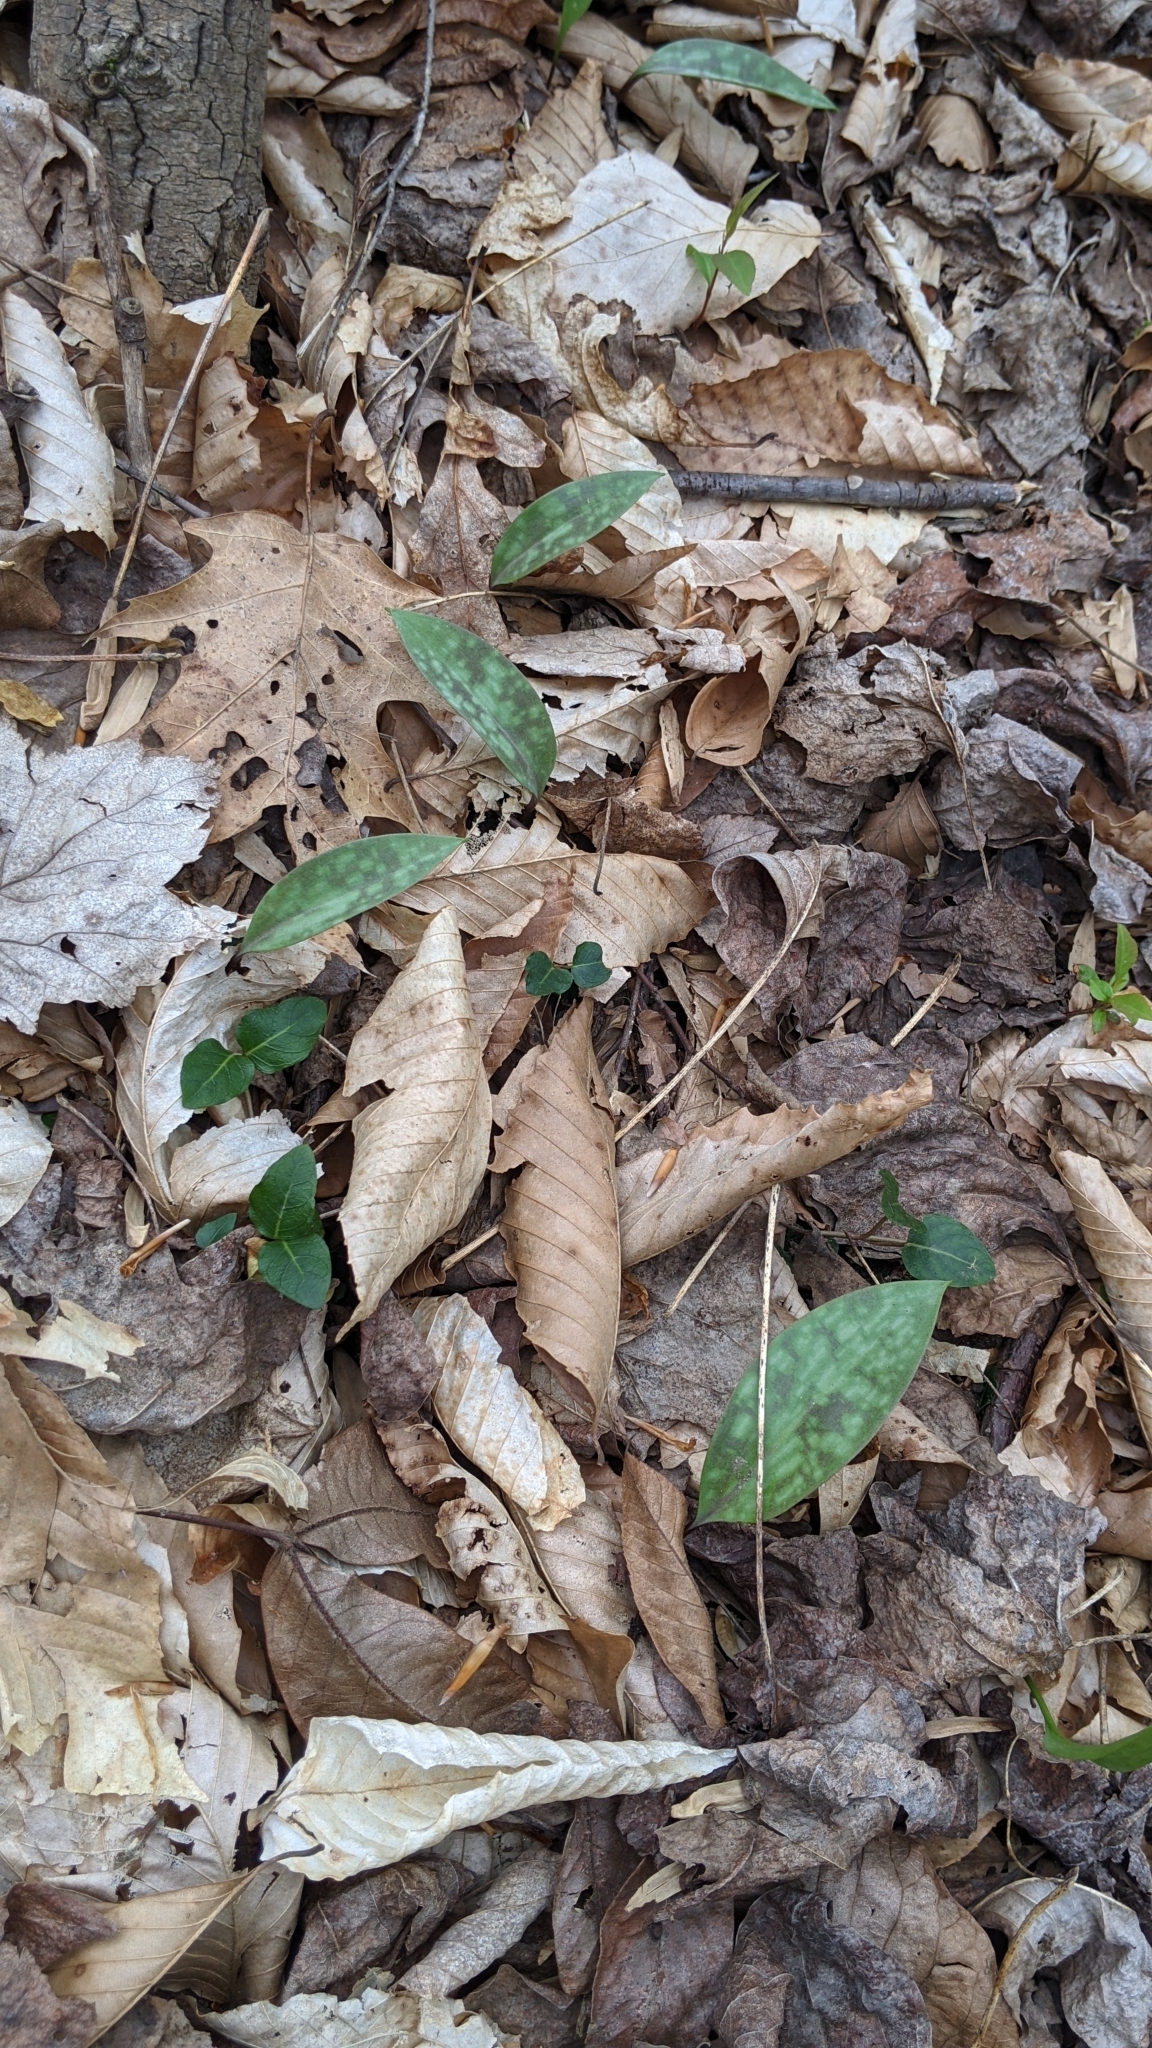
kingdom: Plantae
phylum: Tracheophyta
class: Liliopsida
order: Liliales
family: Liliaceae
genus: Erythronium
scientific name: Erythronium americanum
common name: Yellow adder's-tongue
